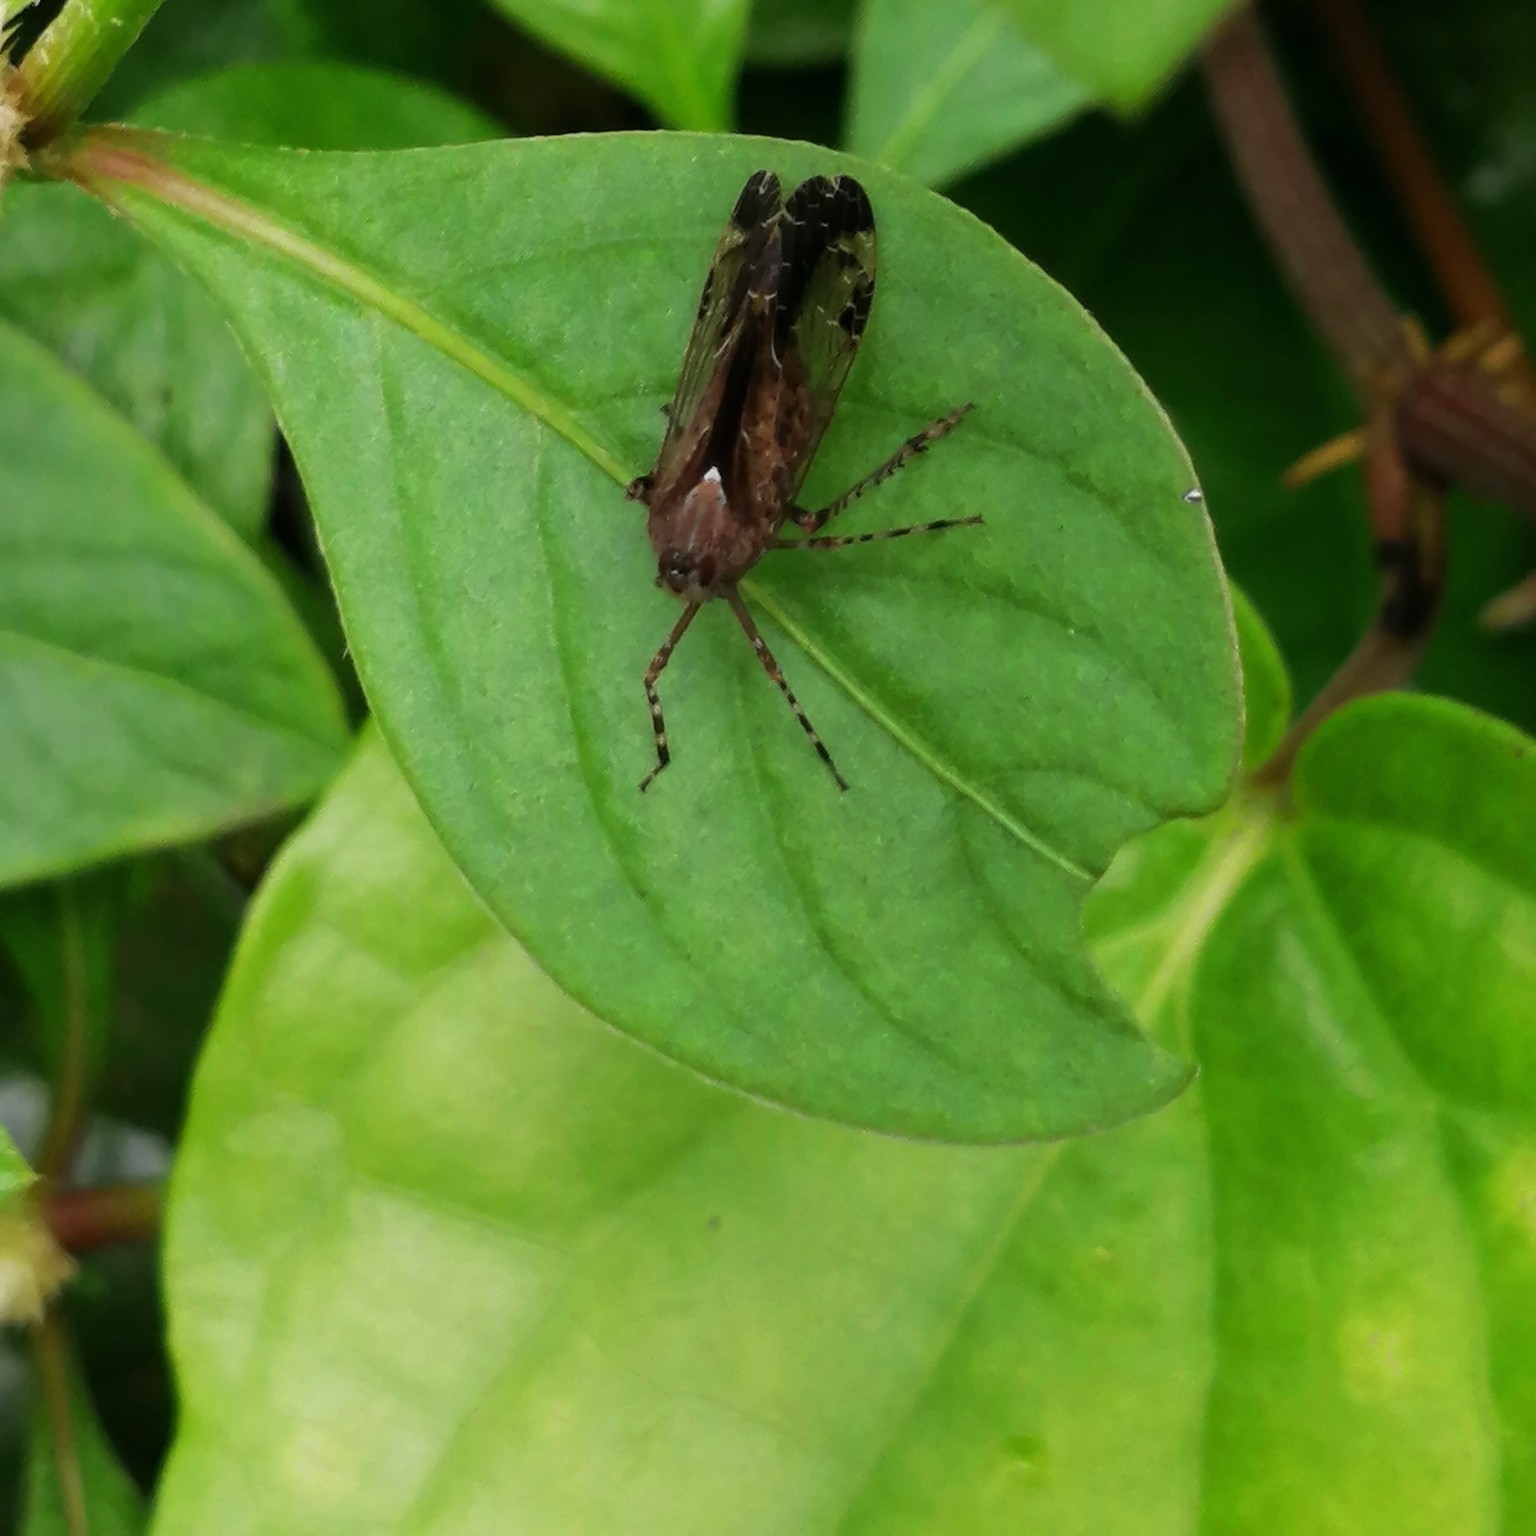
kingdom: Animalia
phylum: Arthropoda
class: Insecta
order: Hemiptera
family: Dictyopharidae
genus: Orthopagus
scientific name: Orthopagus exoletus
